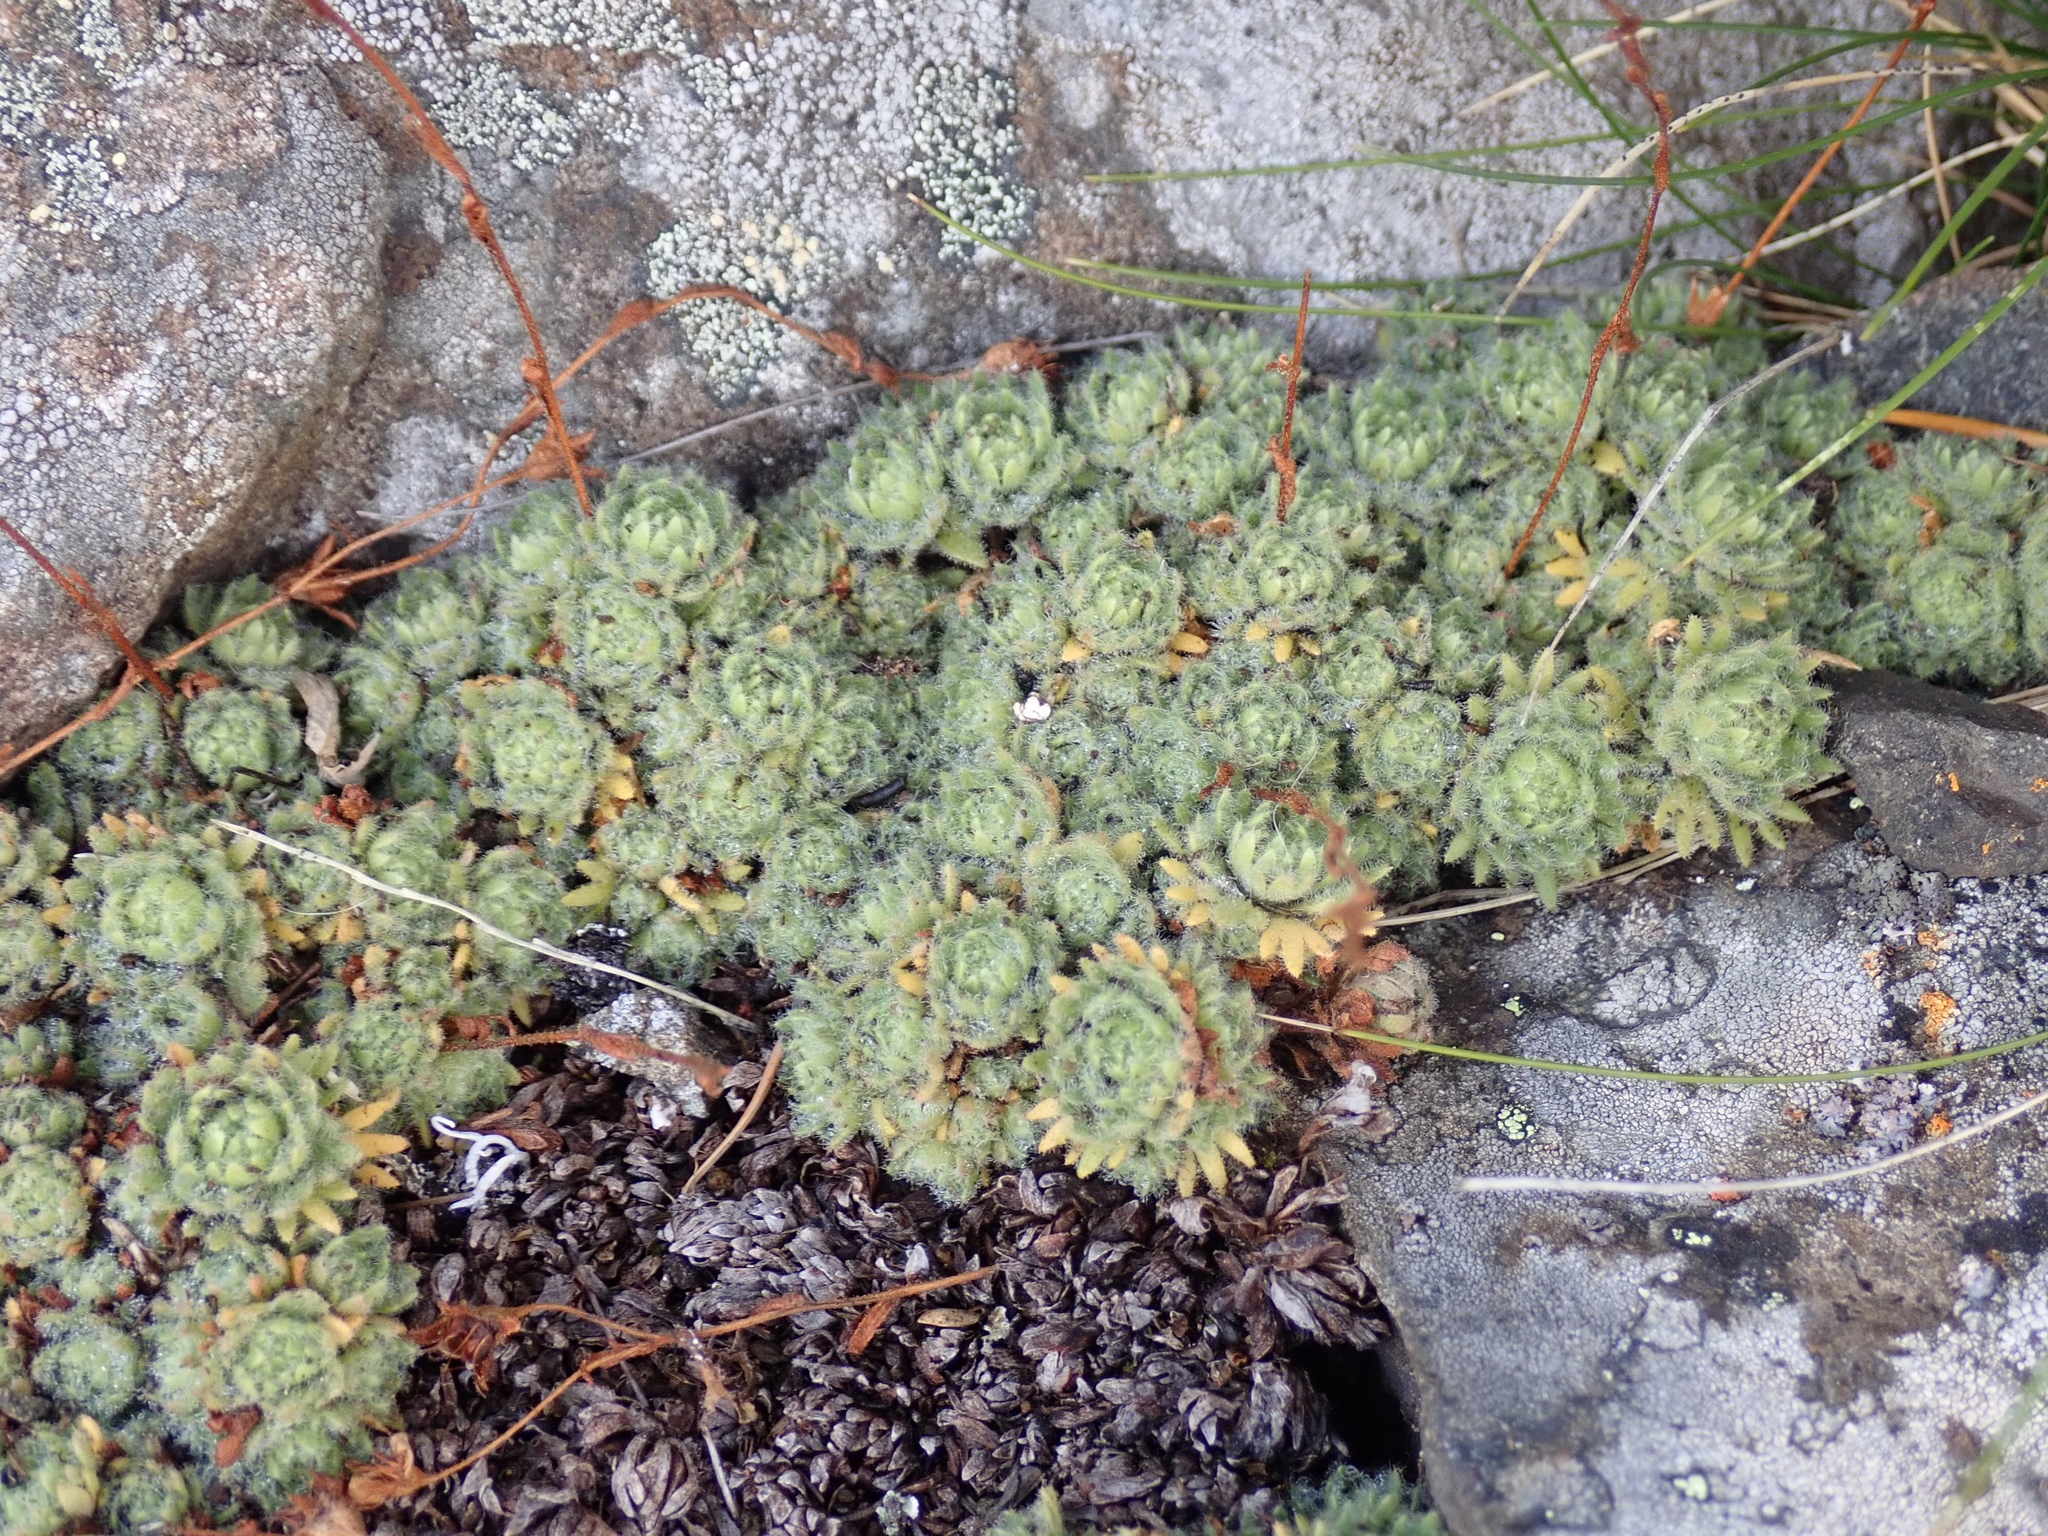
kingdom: Plantae
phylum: Tracheophyta
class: Magnoliopsida
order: Saxifragales
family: Saxifragaceae
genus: Saxifraga
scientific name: Saxifraga cespitosa
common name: Tufted saxifrage
